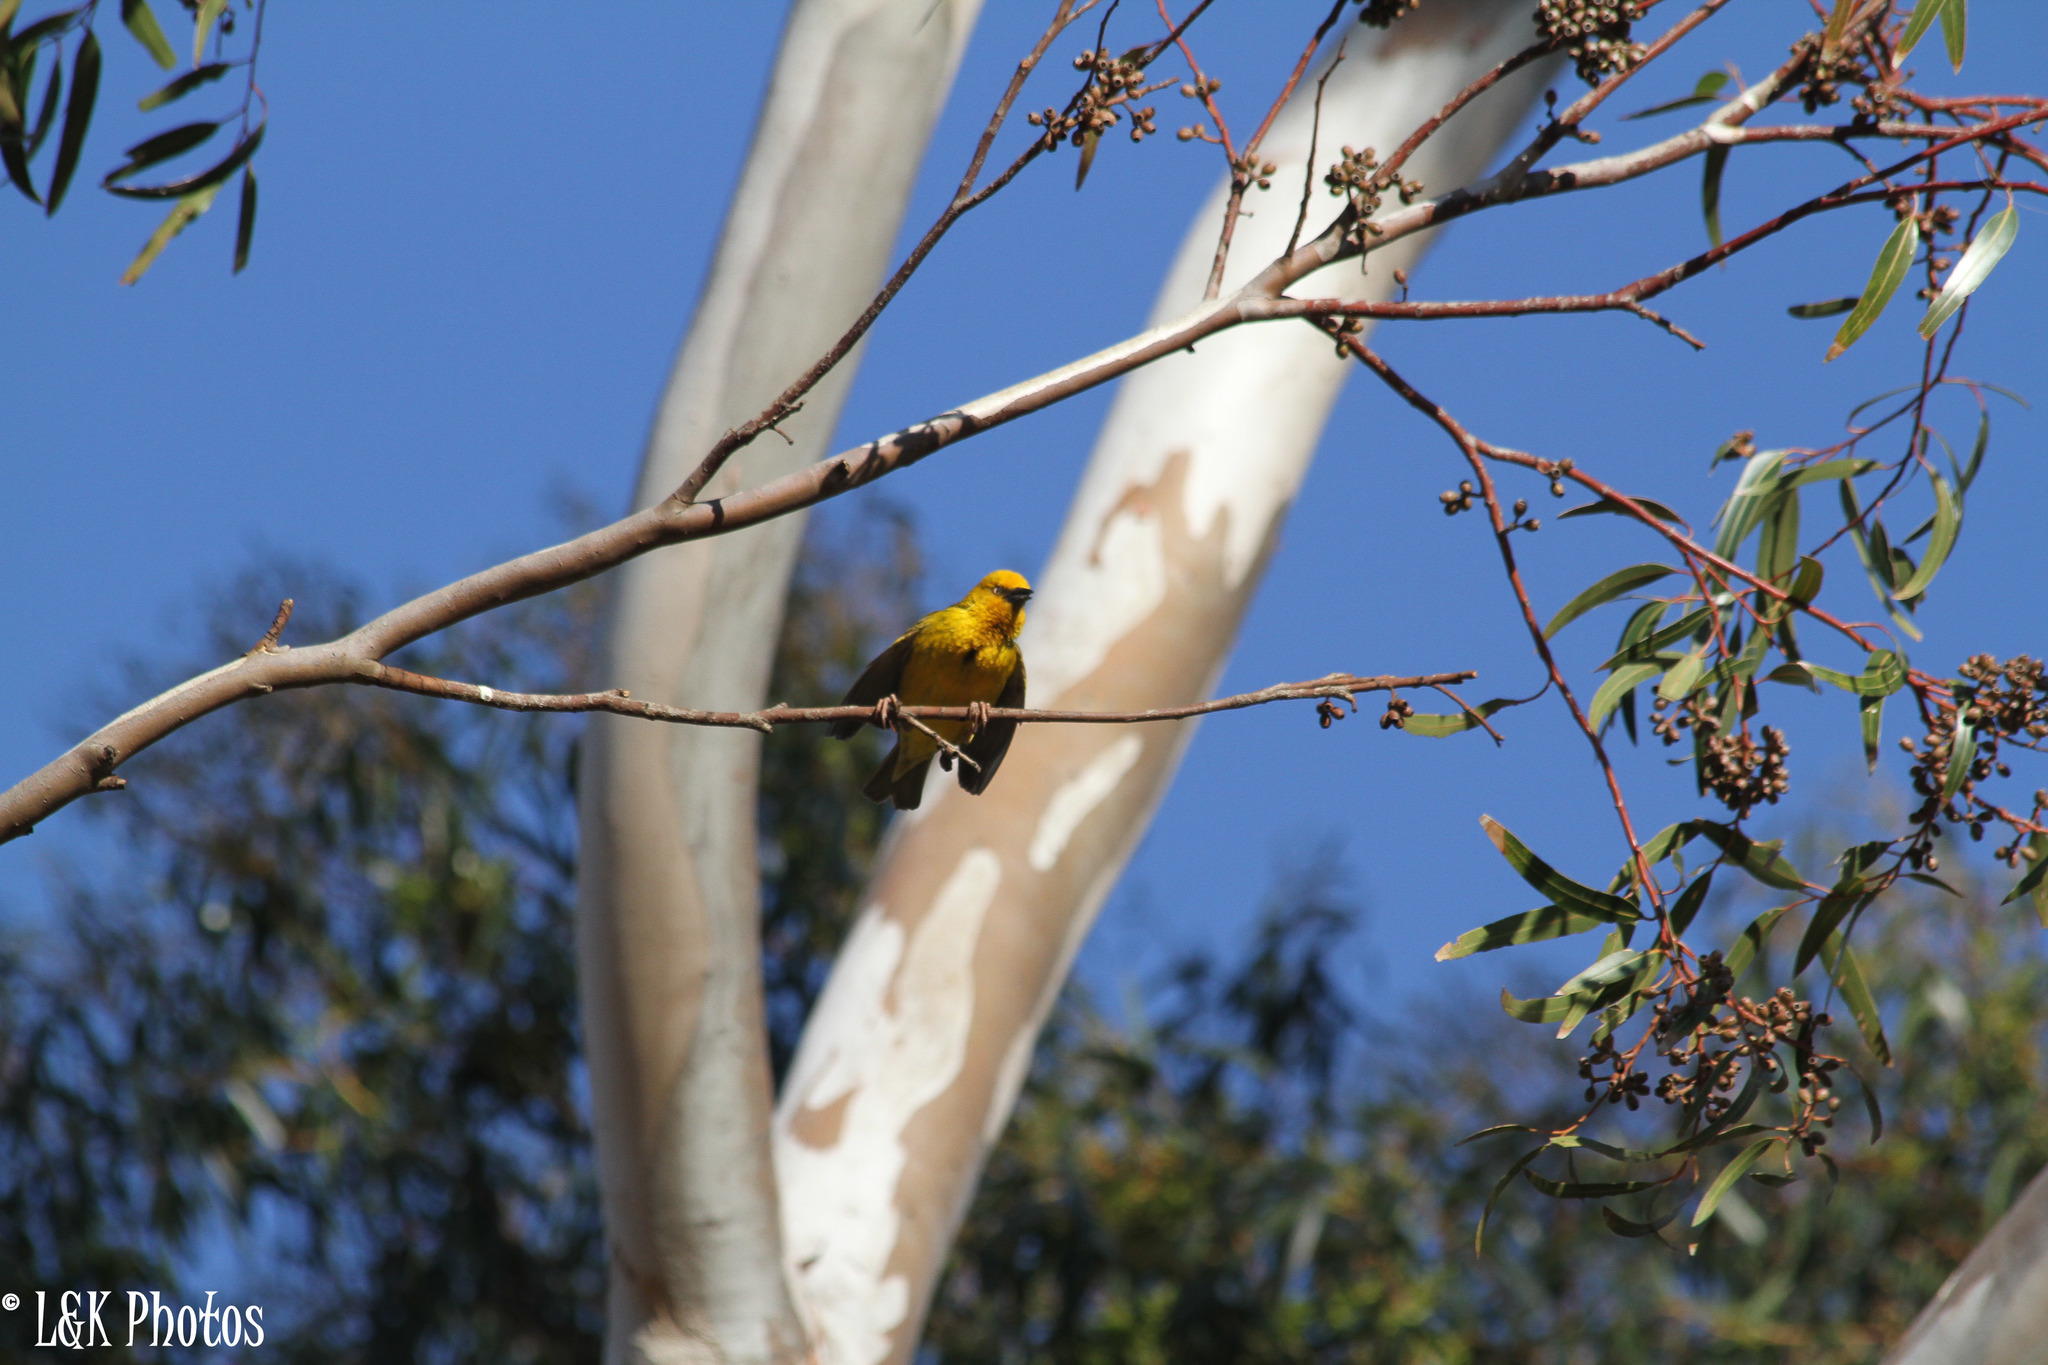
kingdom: Animalia
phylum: Chordata
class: Aves
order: Passeriformes
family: Ploceidae
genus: Ploceus
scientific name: Ploceus capensis
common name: Cape weaver
